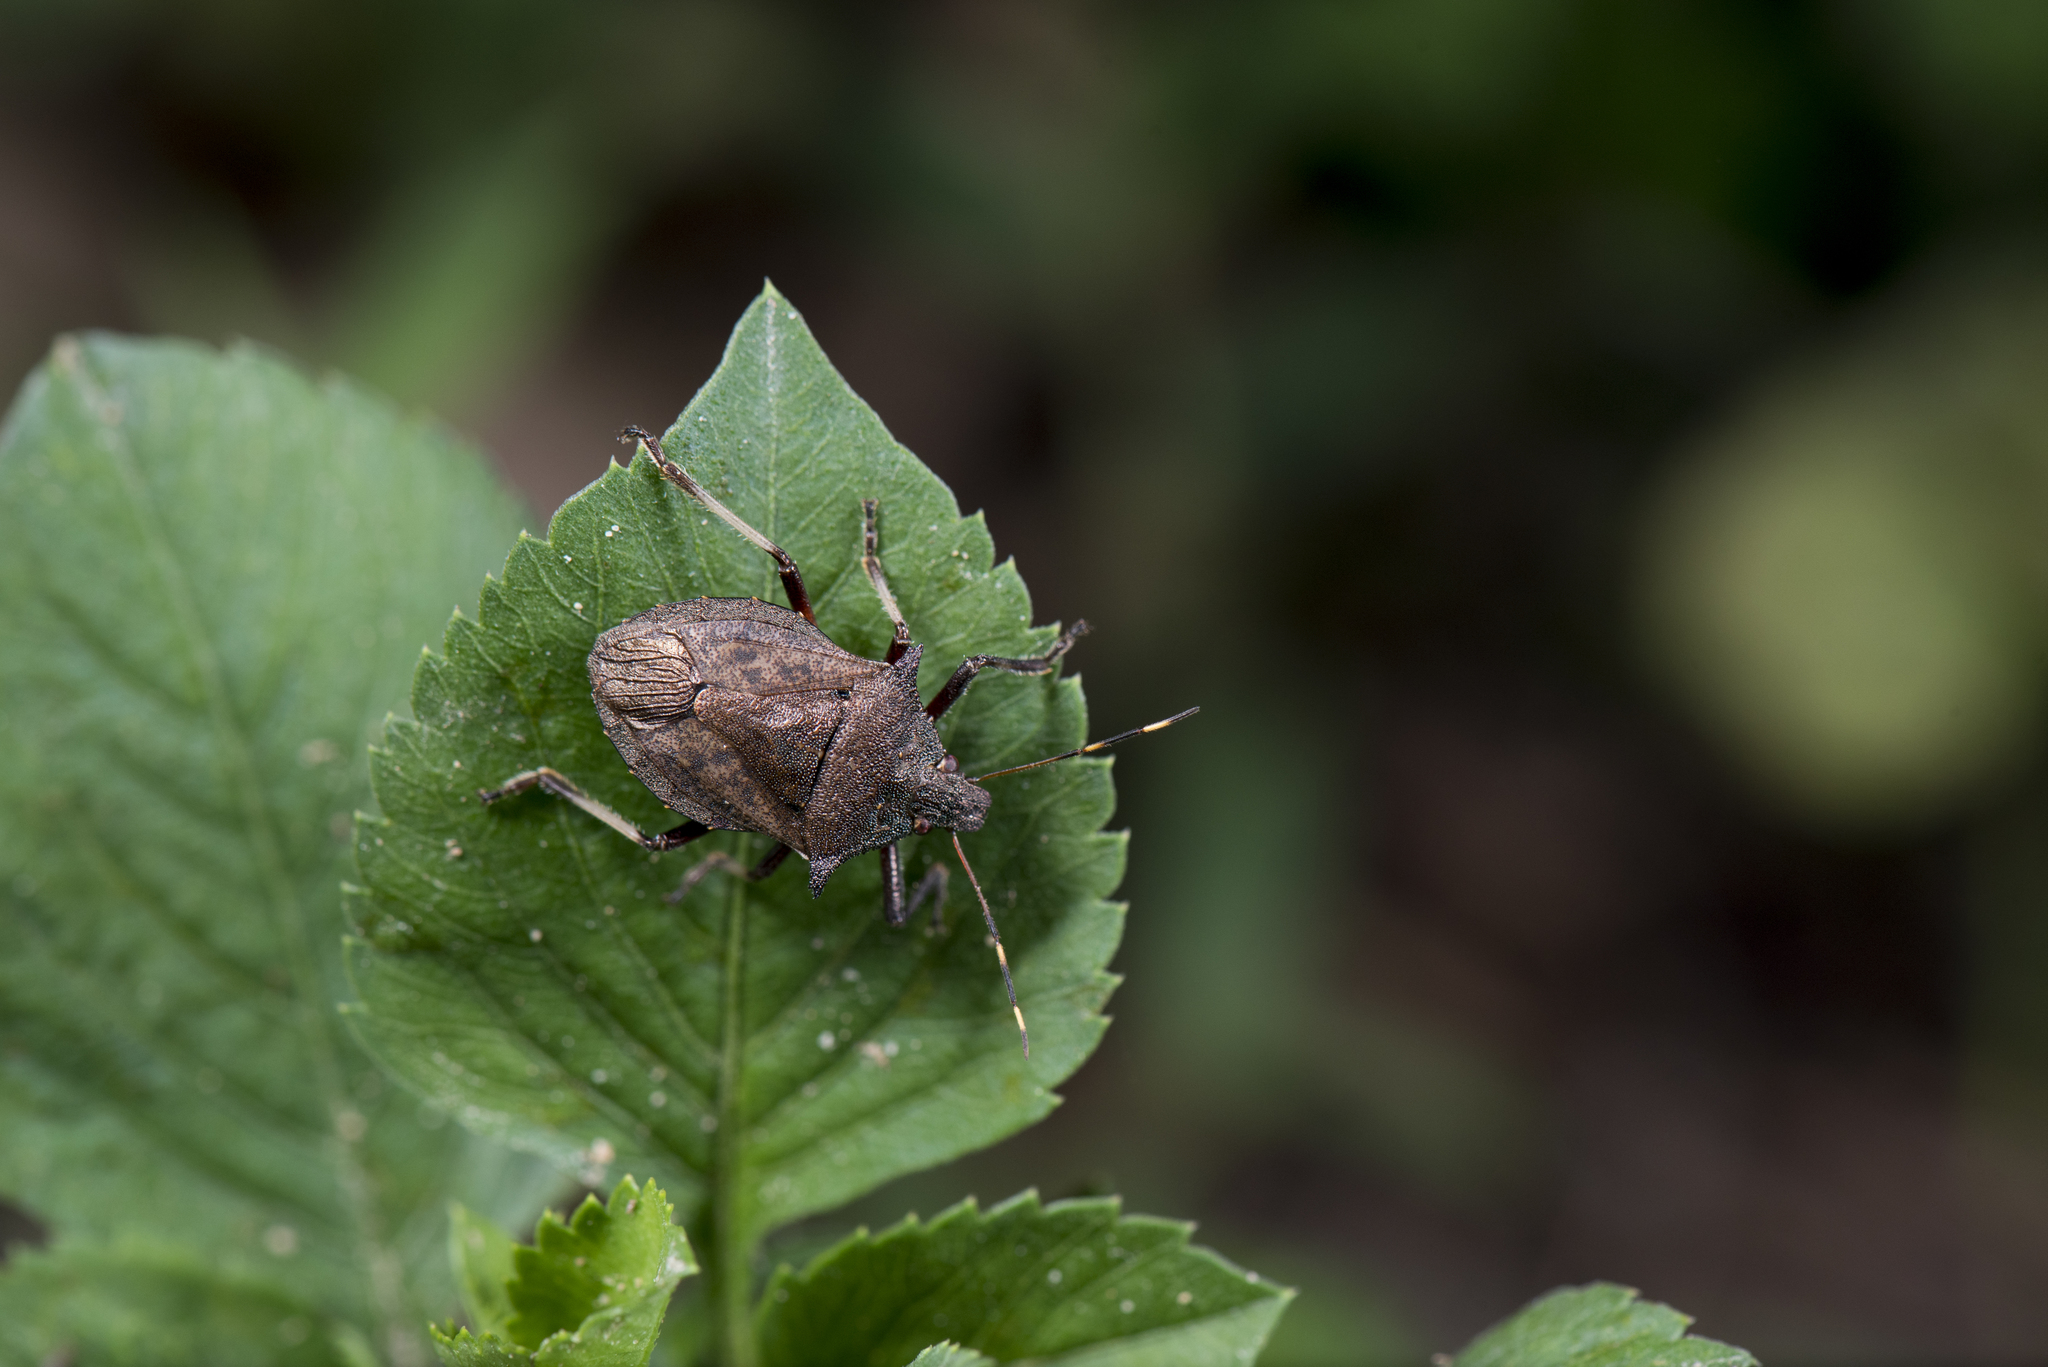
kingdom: Animalia
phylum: Arthropoda
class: Insecta
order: Hemiptera
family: Pentatomidae
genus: Picromerus
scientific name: Picromerus griseus
